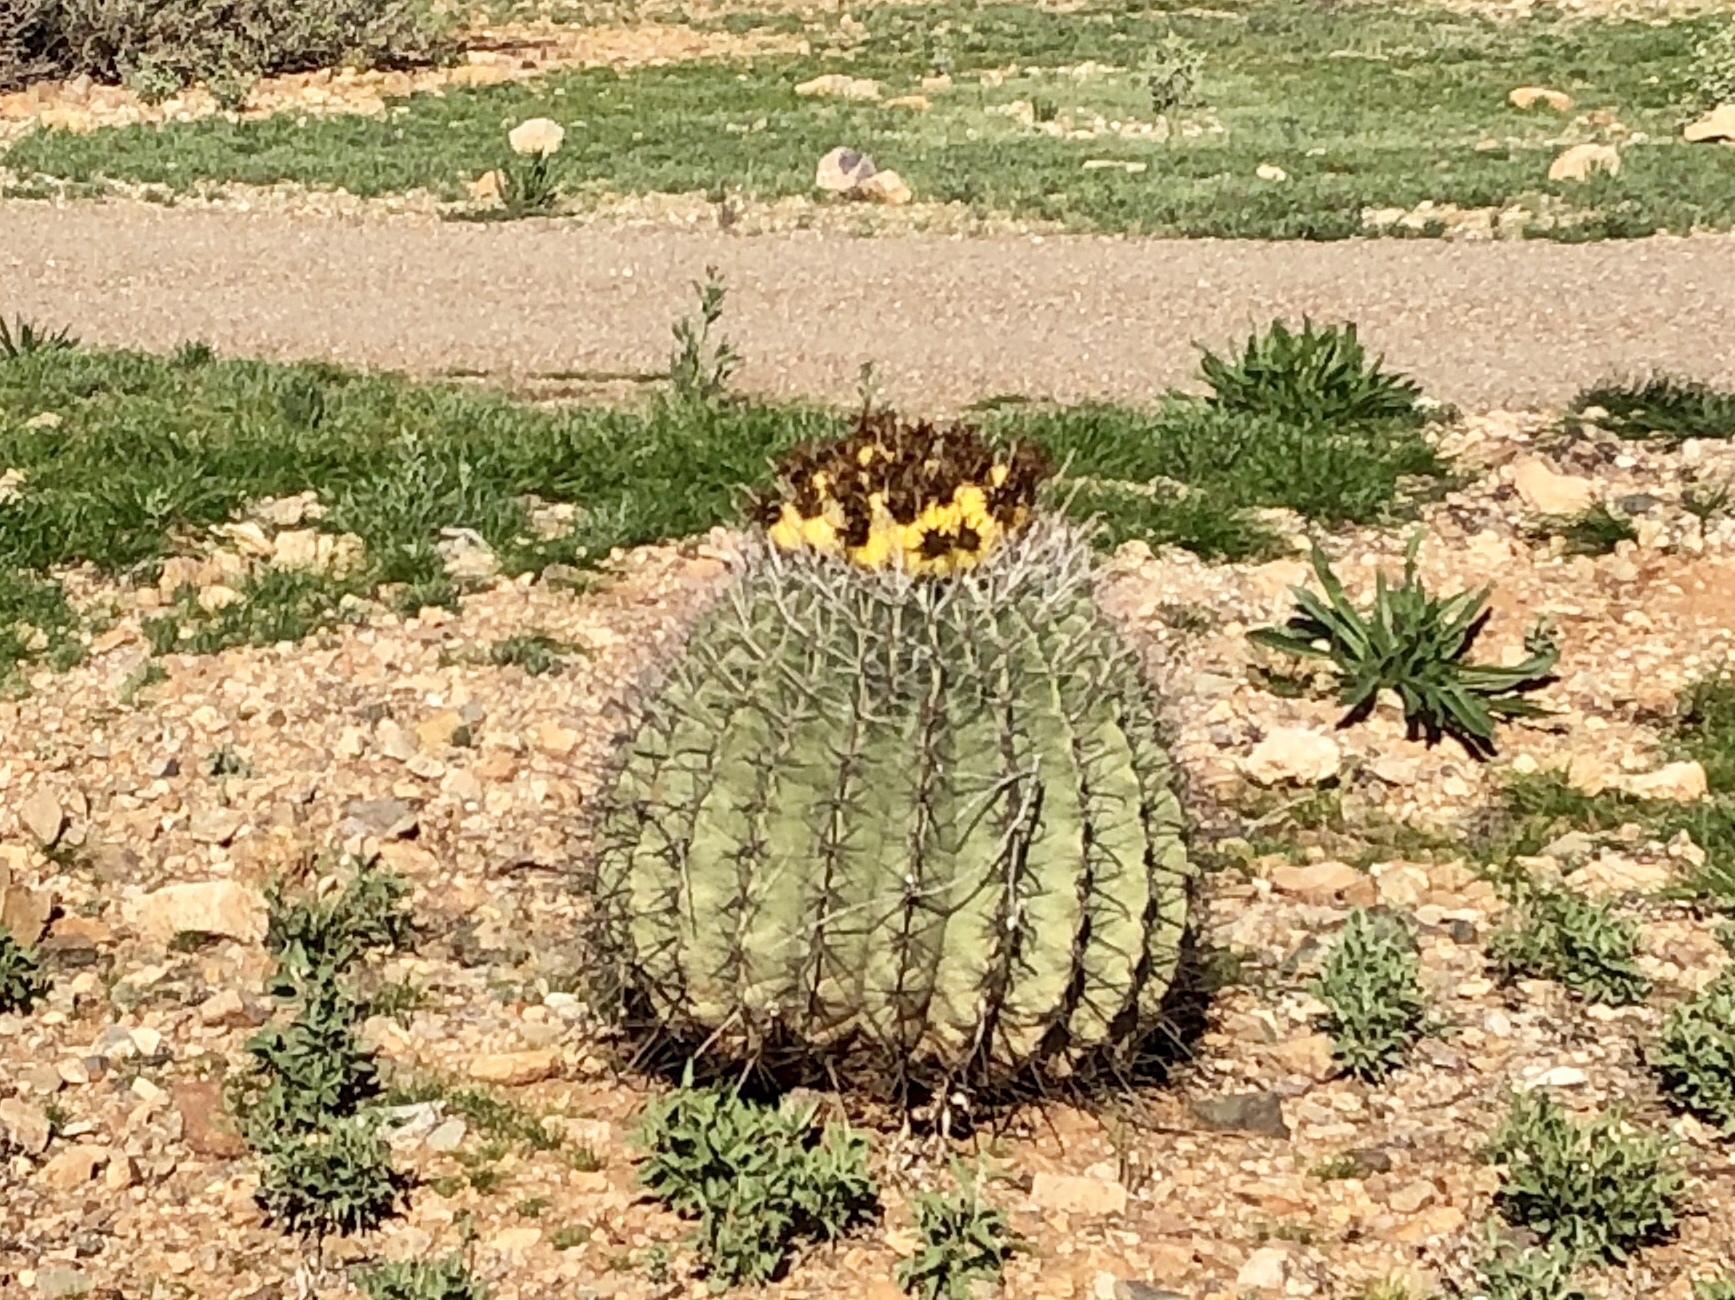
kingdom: Plantae
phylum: Tracheophyta
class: Magnoliopsida
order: Caryophyllales
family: Cactaceae
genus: Ferocactus
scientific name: Ferocactus wislizeni
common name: Candy barrel cactus
